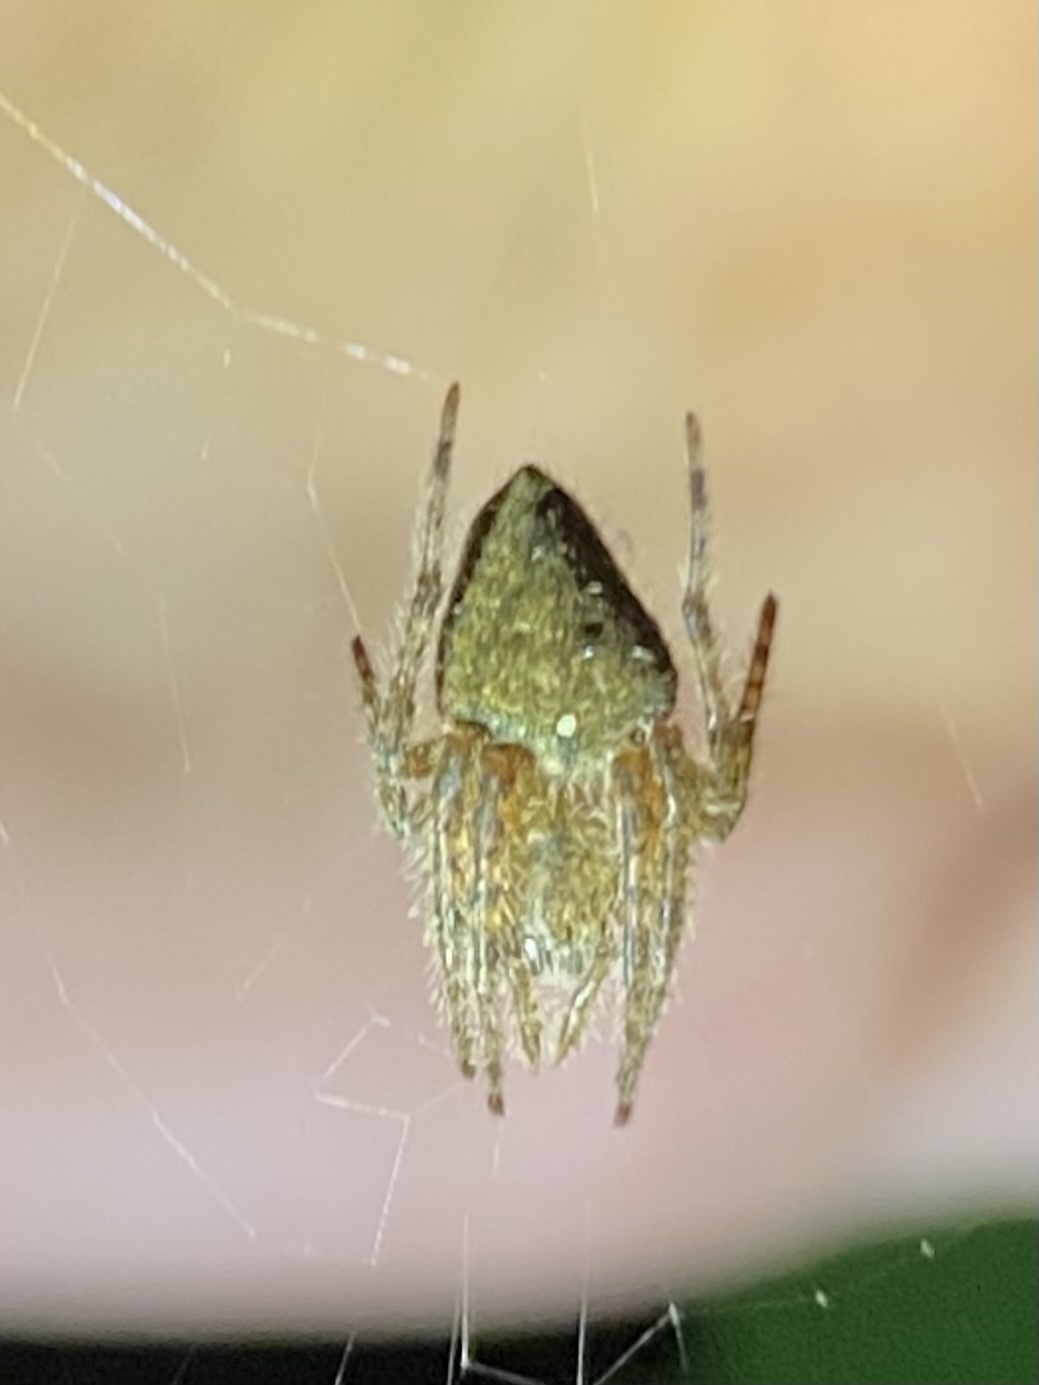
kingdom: Animalia
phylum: Arthropoda
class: Arachnida
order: Araneae
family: Araneidae
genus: Eriophora
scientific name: Eriophora edax
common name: Orb weavers
